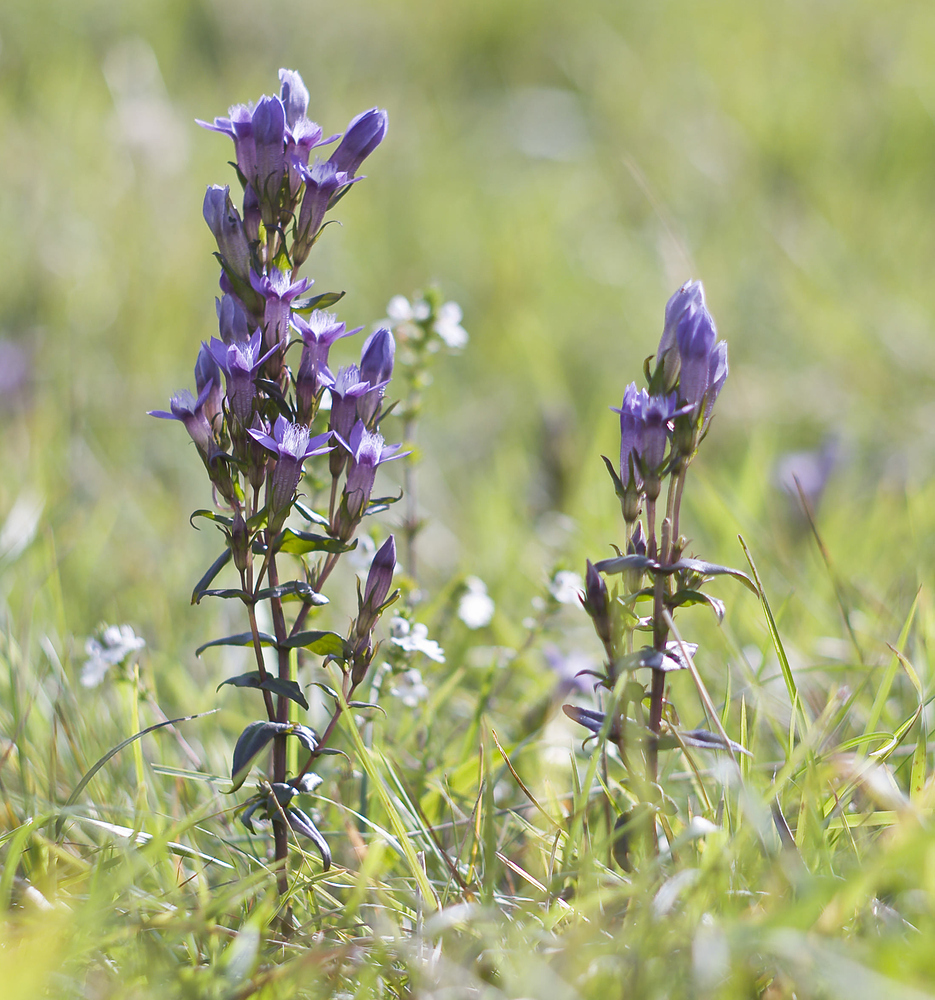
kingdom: Plantae
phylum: Tracheophyta
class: Magnoliopsida
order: Gentianales
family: Gentianaceae
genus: Gentianella
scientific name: Gentianella germanica
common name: Chiltern-gentian
